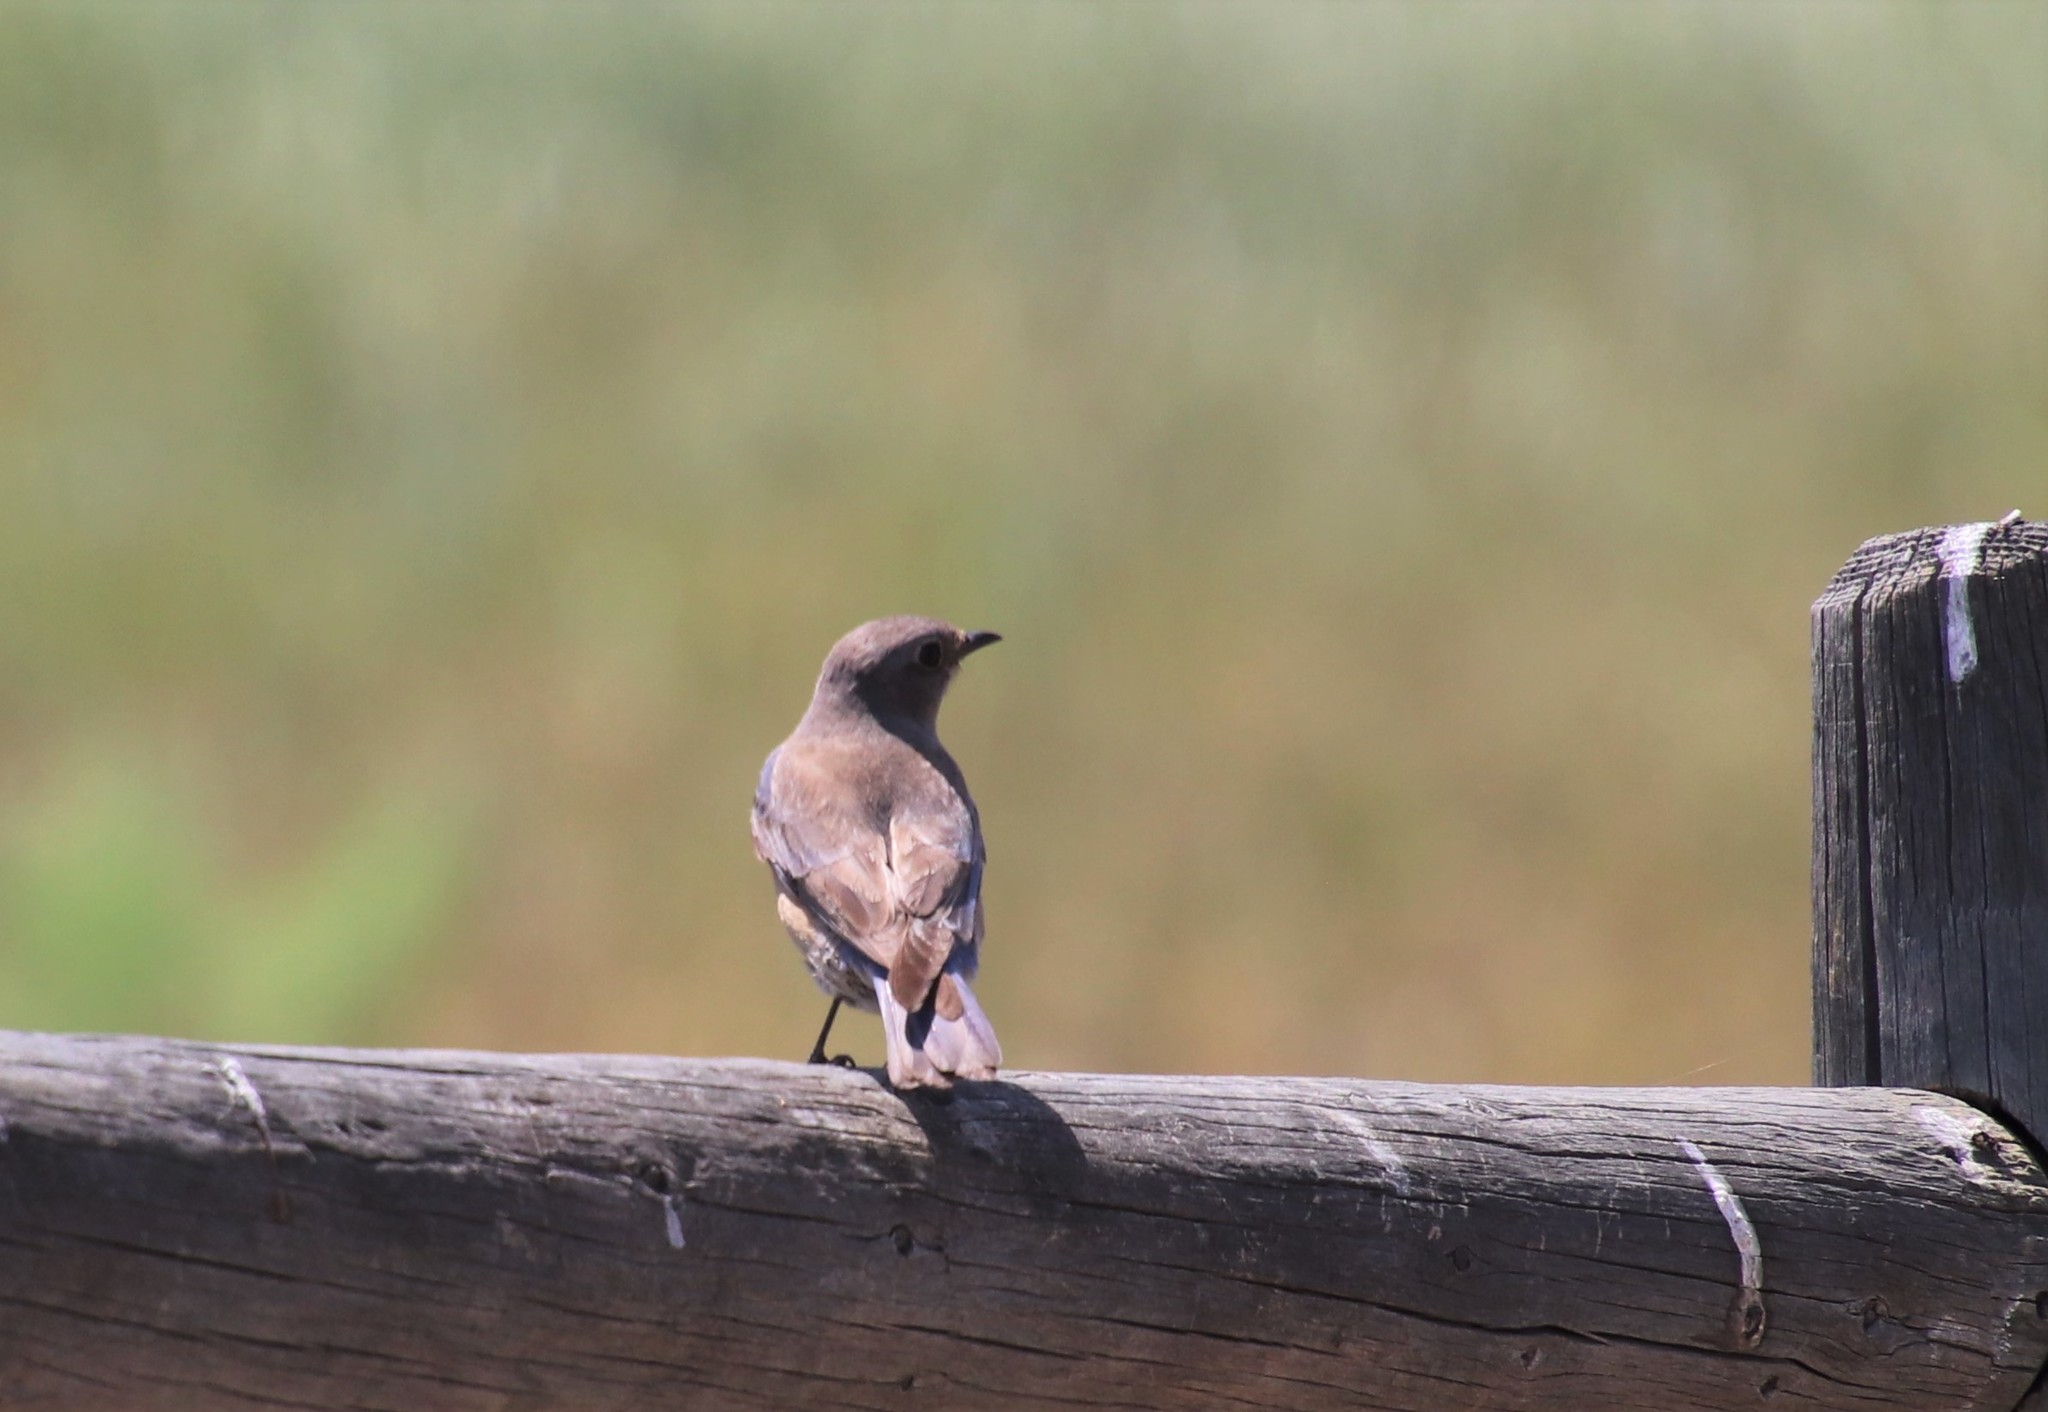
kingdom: Animalia
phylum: Chordata
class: Aves
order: Passeriformes
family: Turdidae
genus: Sialia
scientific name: Sialia mexicana
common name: Western bluebird
